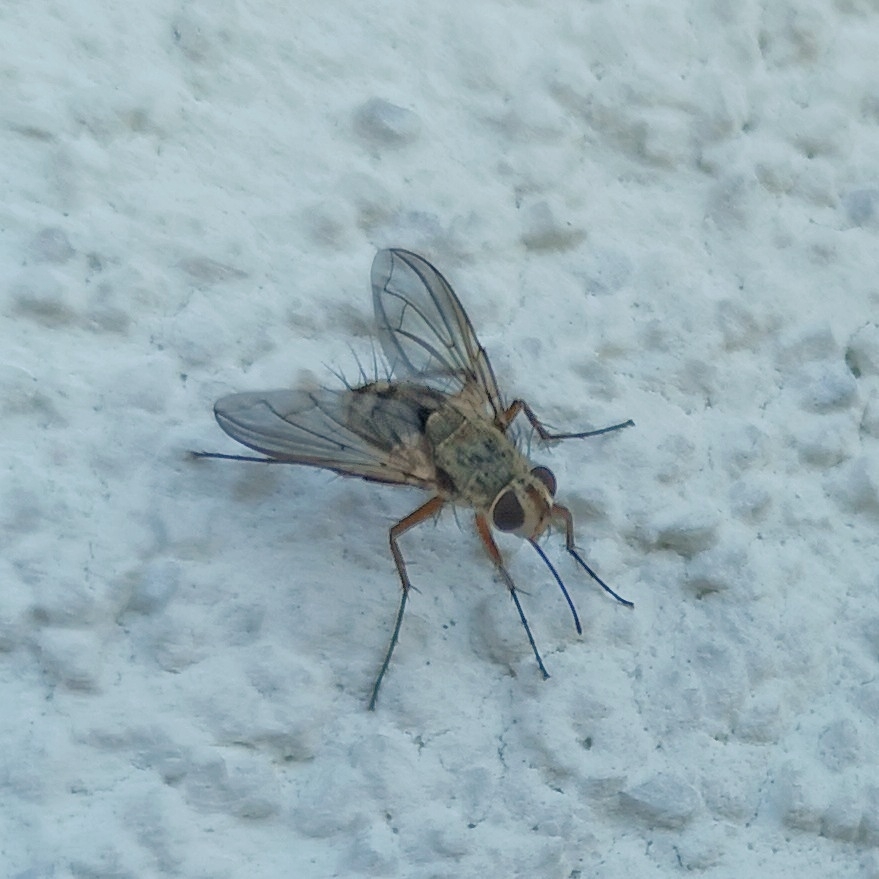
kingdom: Animalia
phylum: Arthropoda
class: Insecta
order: Diptera
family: Tachinidae
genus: Prosena
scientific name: Prosena siberita
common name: Parasitic fly
